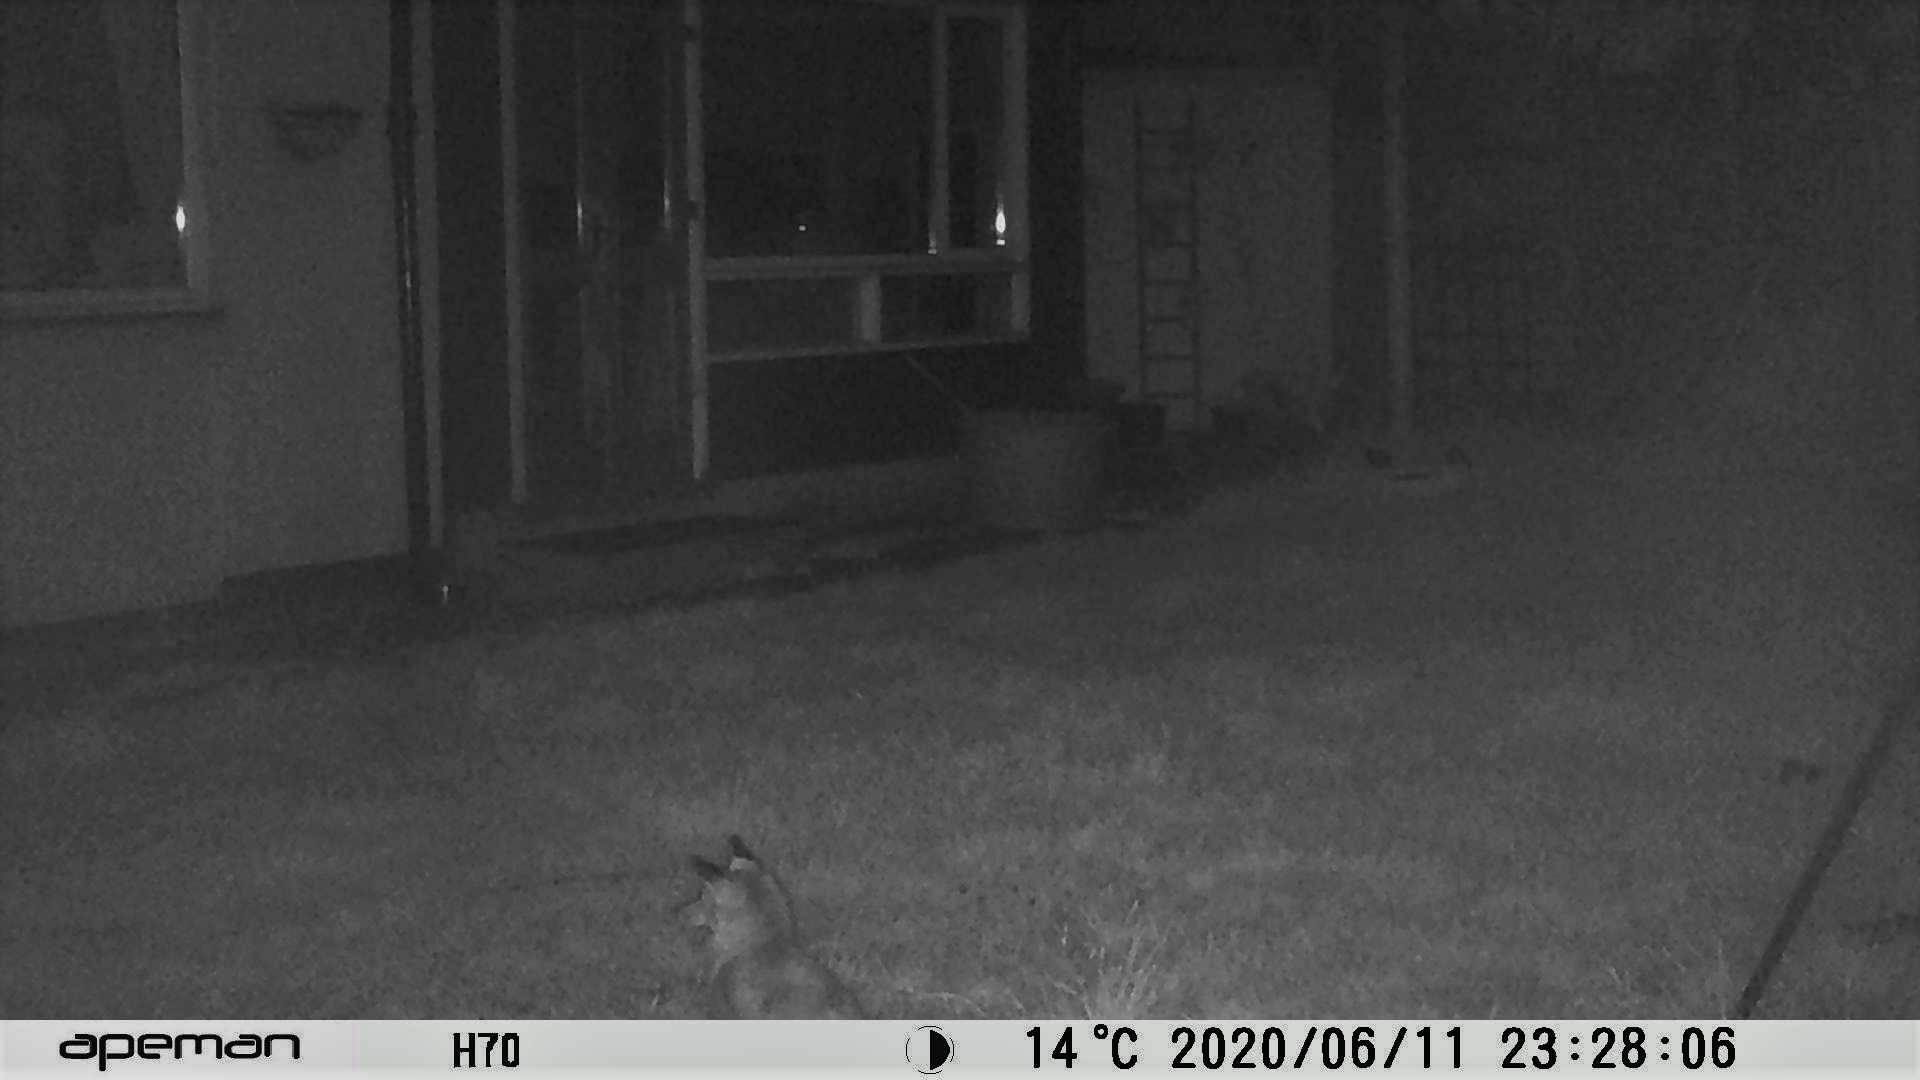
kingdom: Animalia
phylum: Chordata
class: Mammalia
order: Carnivora
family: Canidae
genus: Vulpes
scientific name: Vulpes vulpes
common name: Red fox
